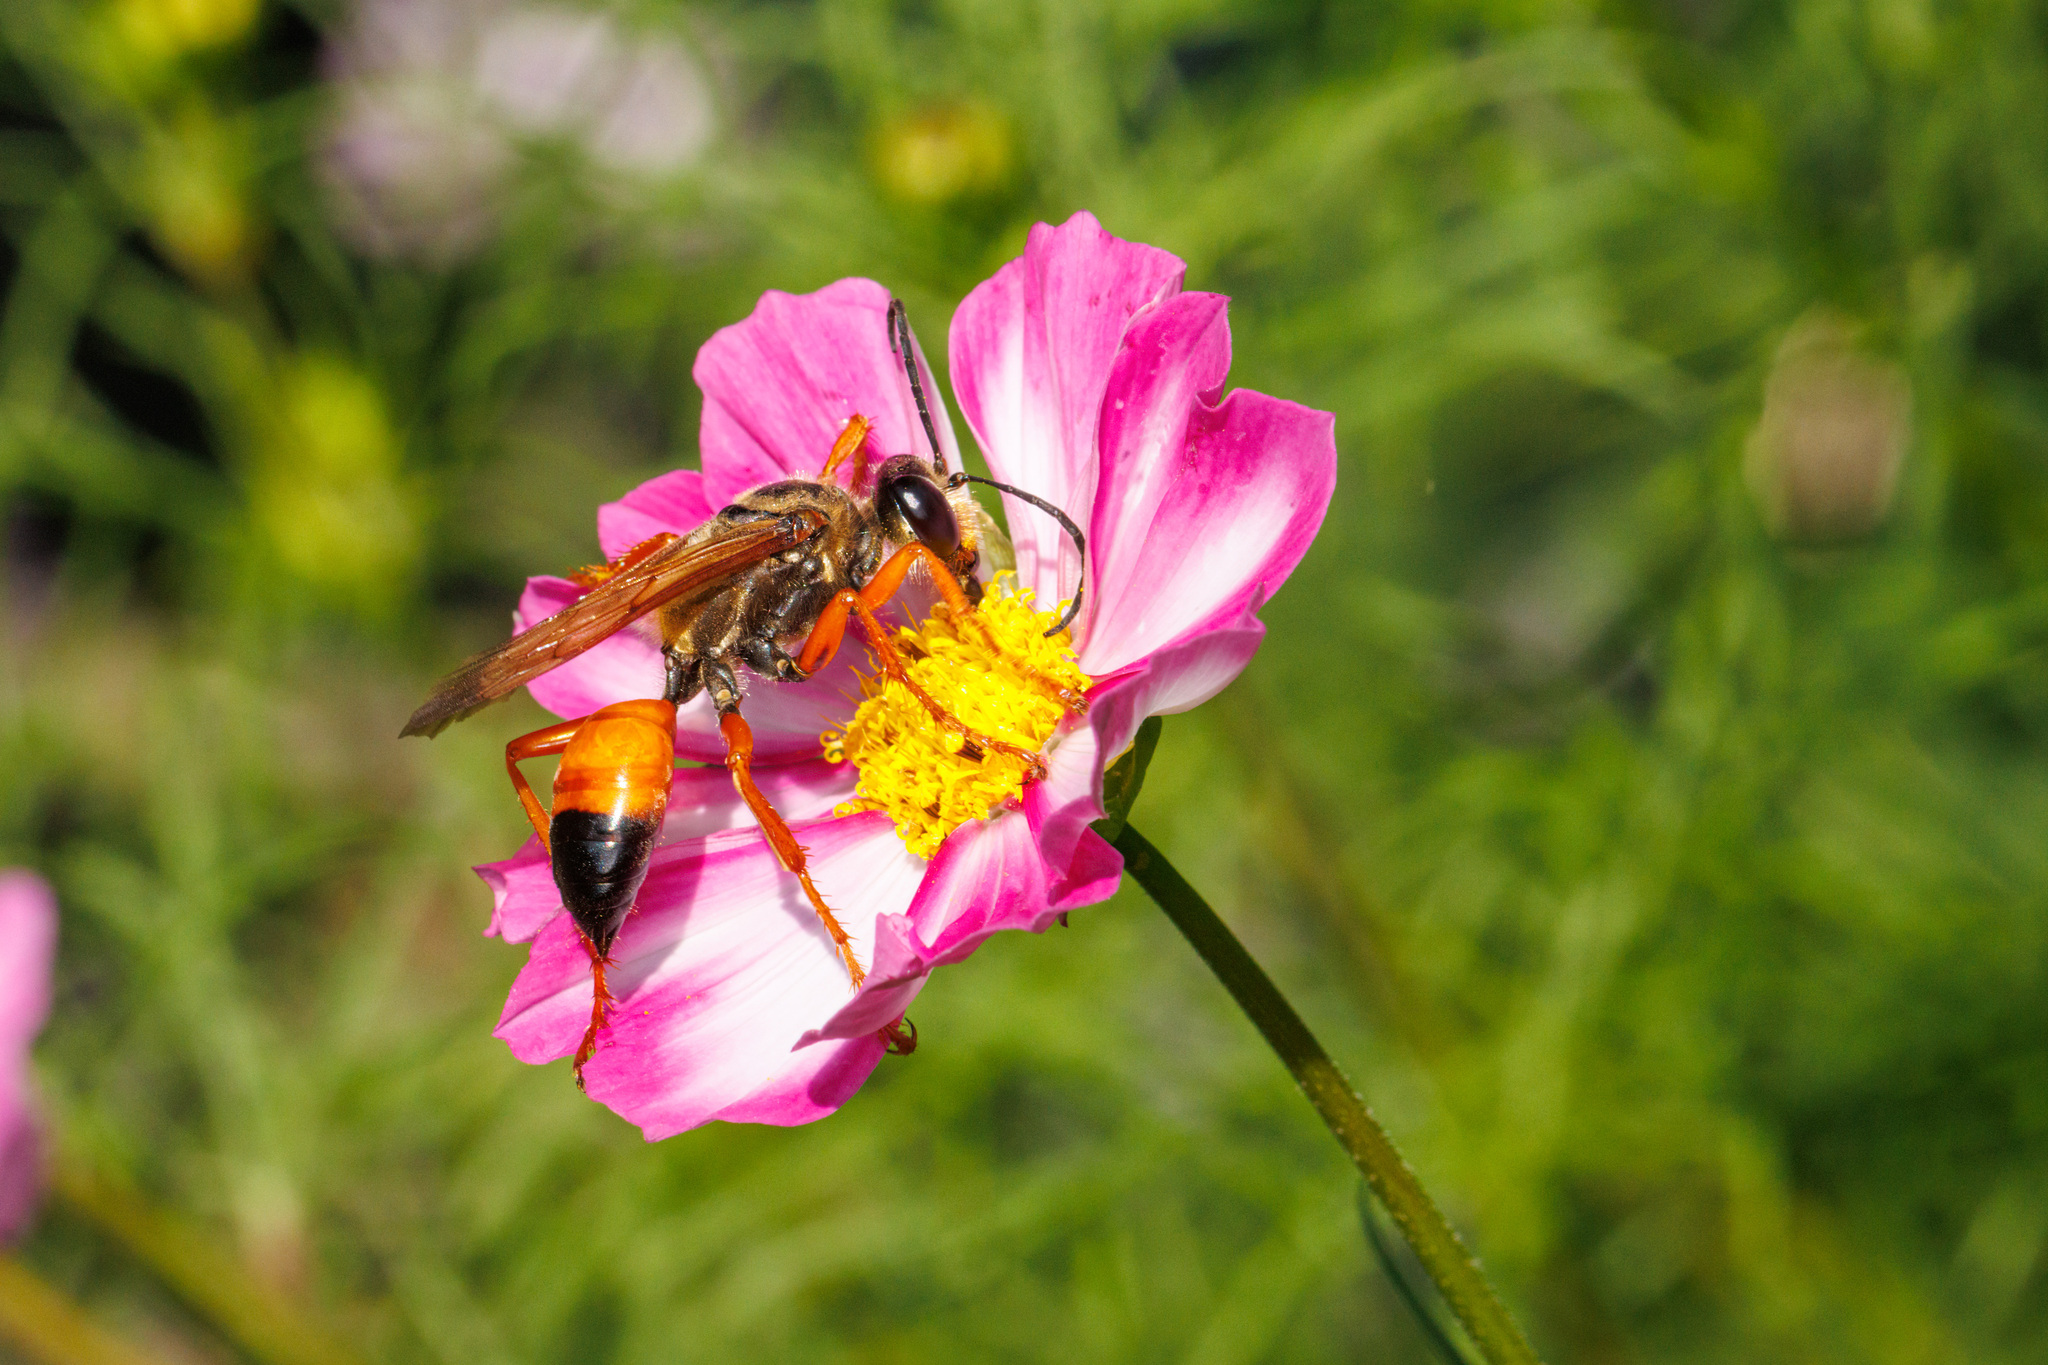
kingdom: Animalia
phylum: Arthropoda
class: Insecta
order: Hymenoptera
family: Sphecidae
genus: Sphex
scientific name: Sphex ichneumoneus
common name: Great golden digger wasp
